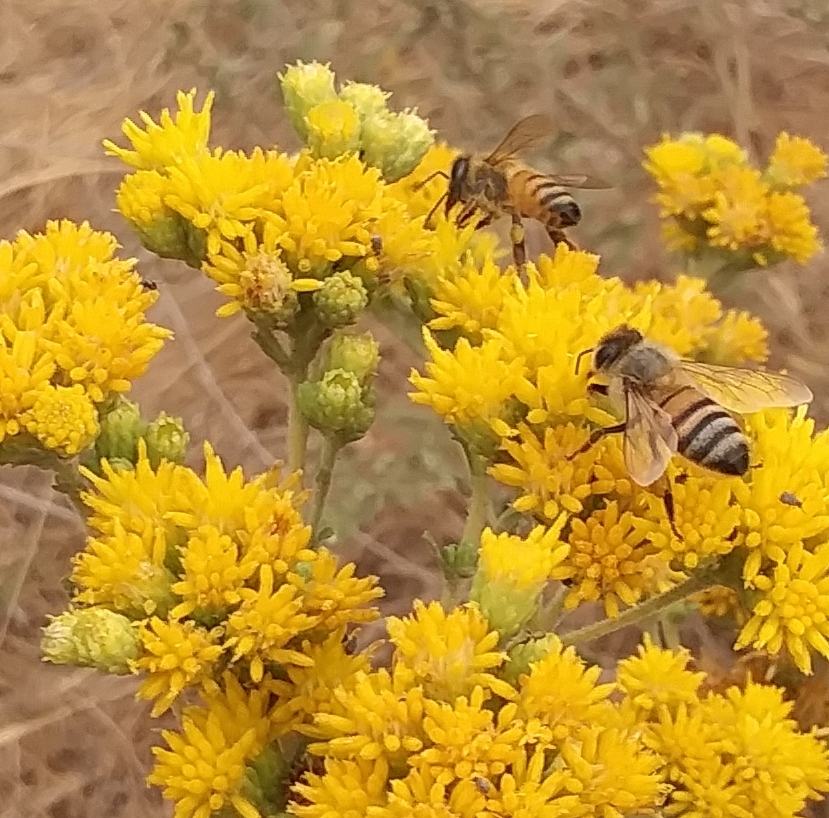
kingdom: Animalia
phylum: Arthropoda
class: Insecta
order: Hymenoptera
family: Apidae
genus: Apis
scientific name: Apis mellifera
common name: Honey bee
